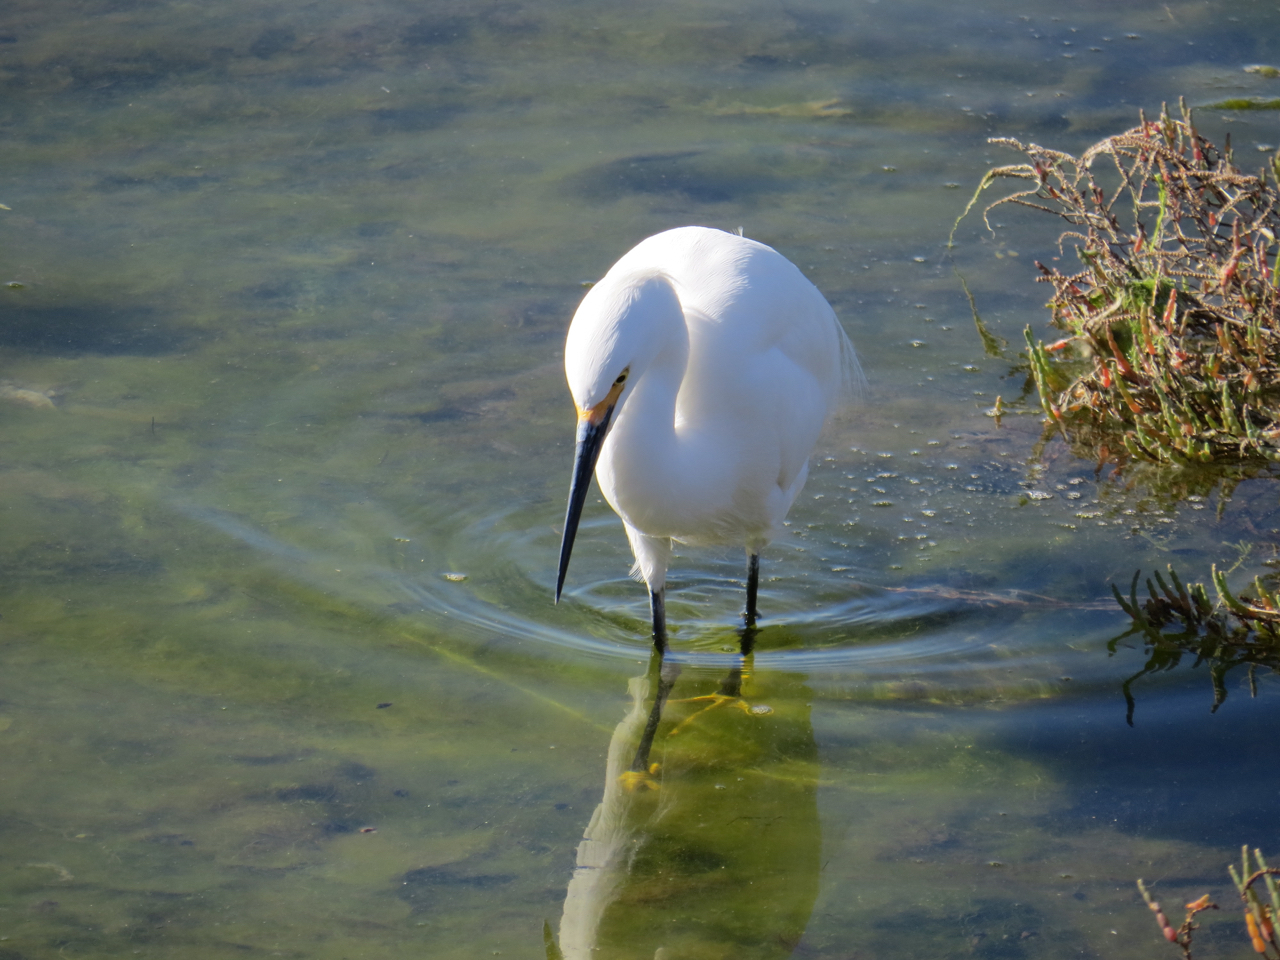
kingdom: Animalia
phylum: Chordata
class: Aves
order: Pelecaniformes
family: Ardeidae
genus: Egretta
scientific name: Egretta thula
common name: Snowy egret
